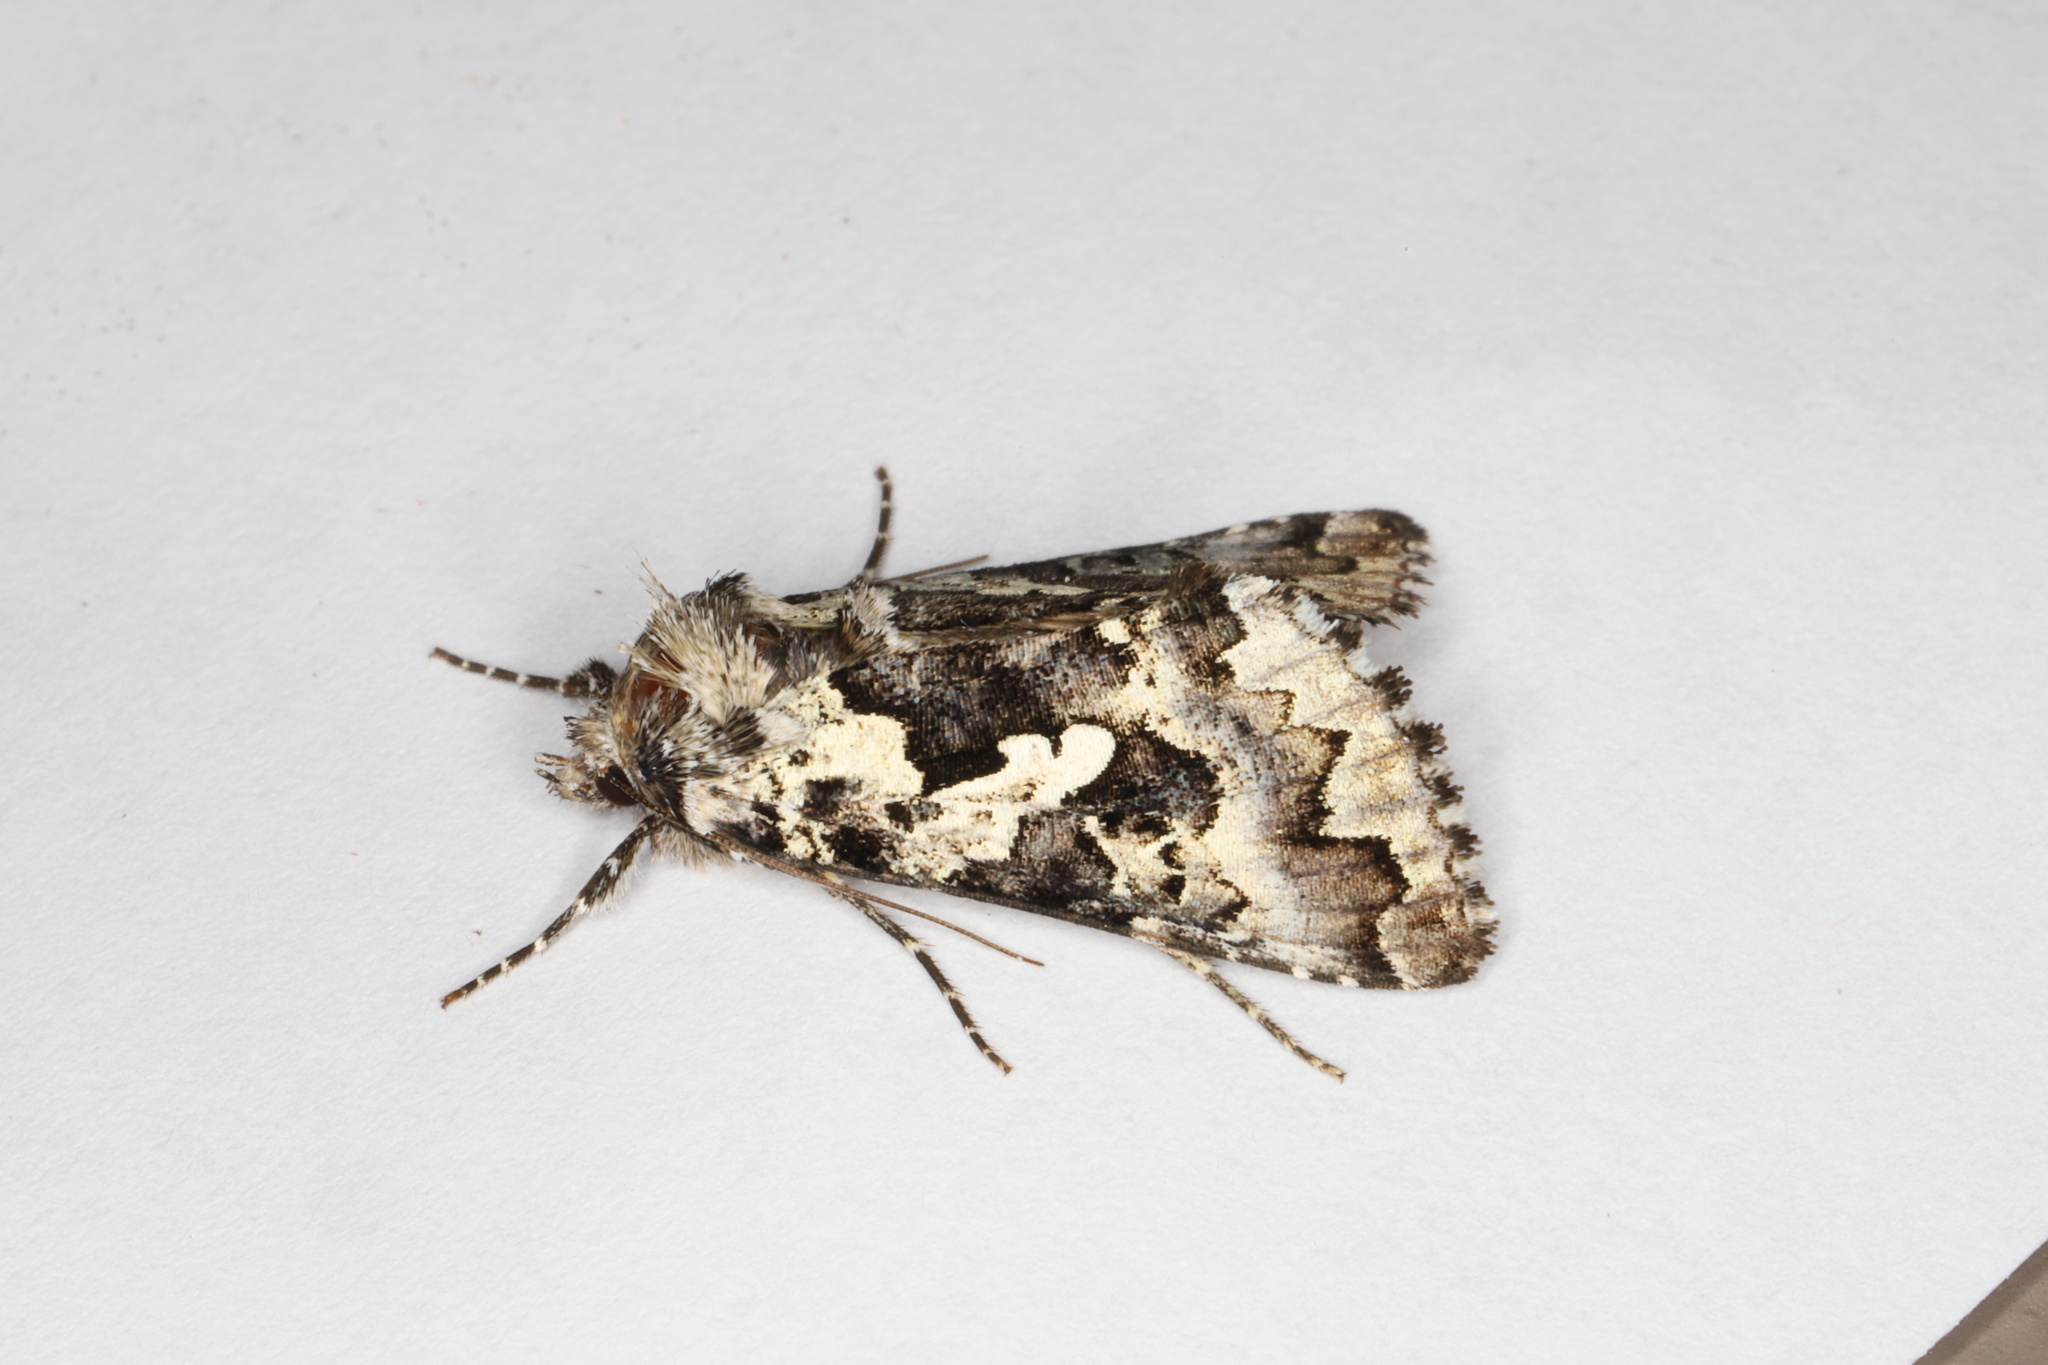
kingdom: Animalia
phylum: Arthropoda
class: Insecta
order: Lepidoptera
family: Noctuidae
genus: Syngrapha
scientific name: Syngrapha rectangula
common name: Angulated cutworm
